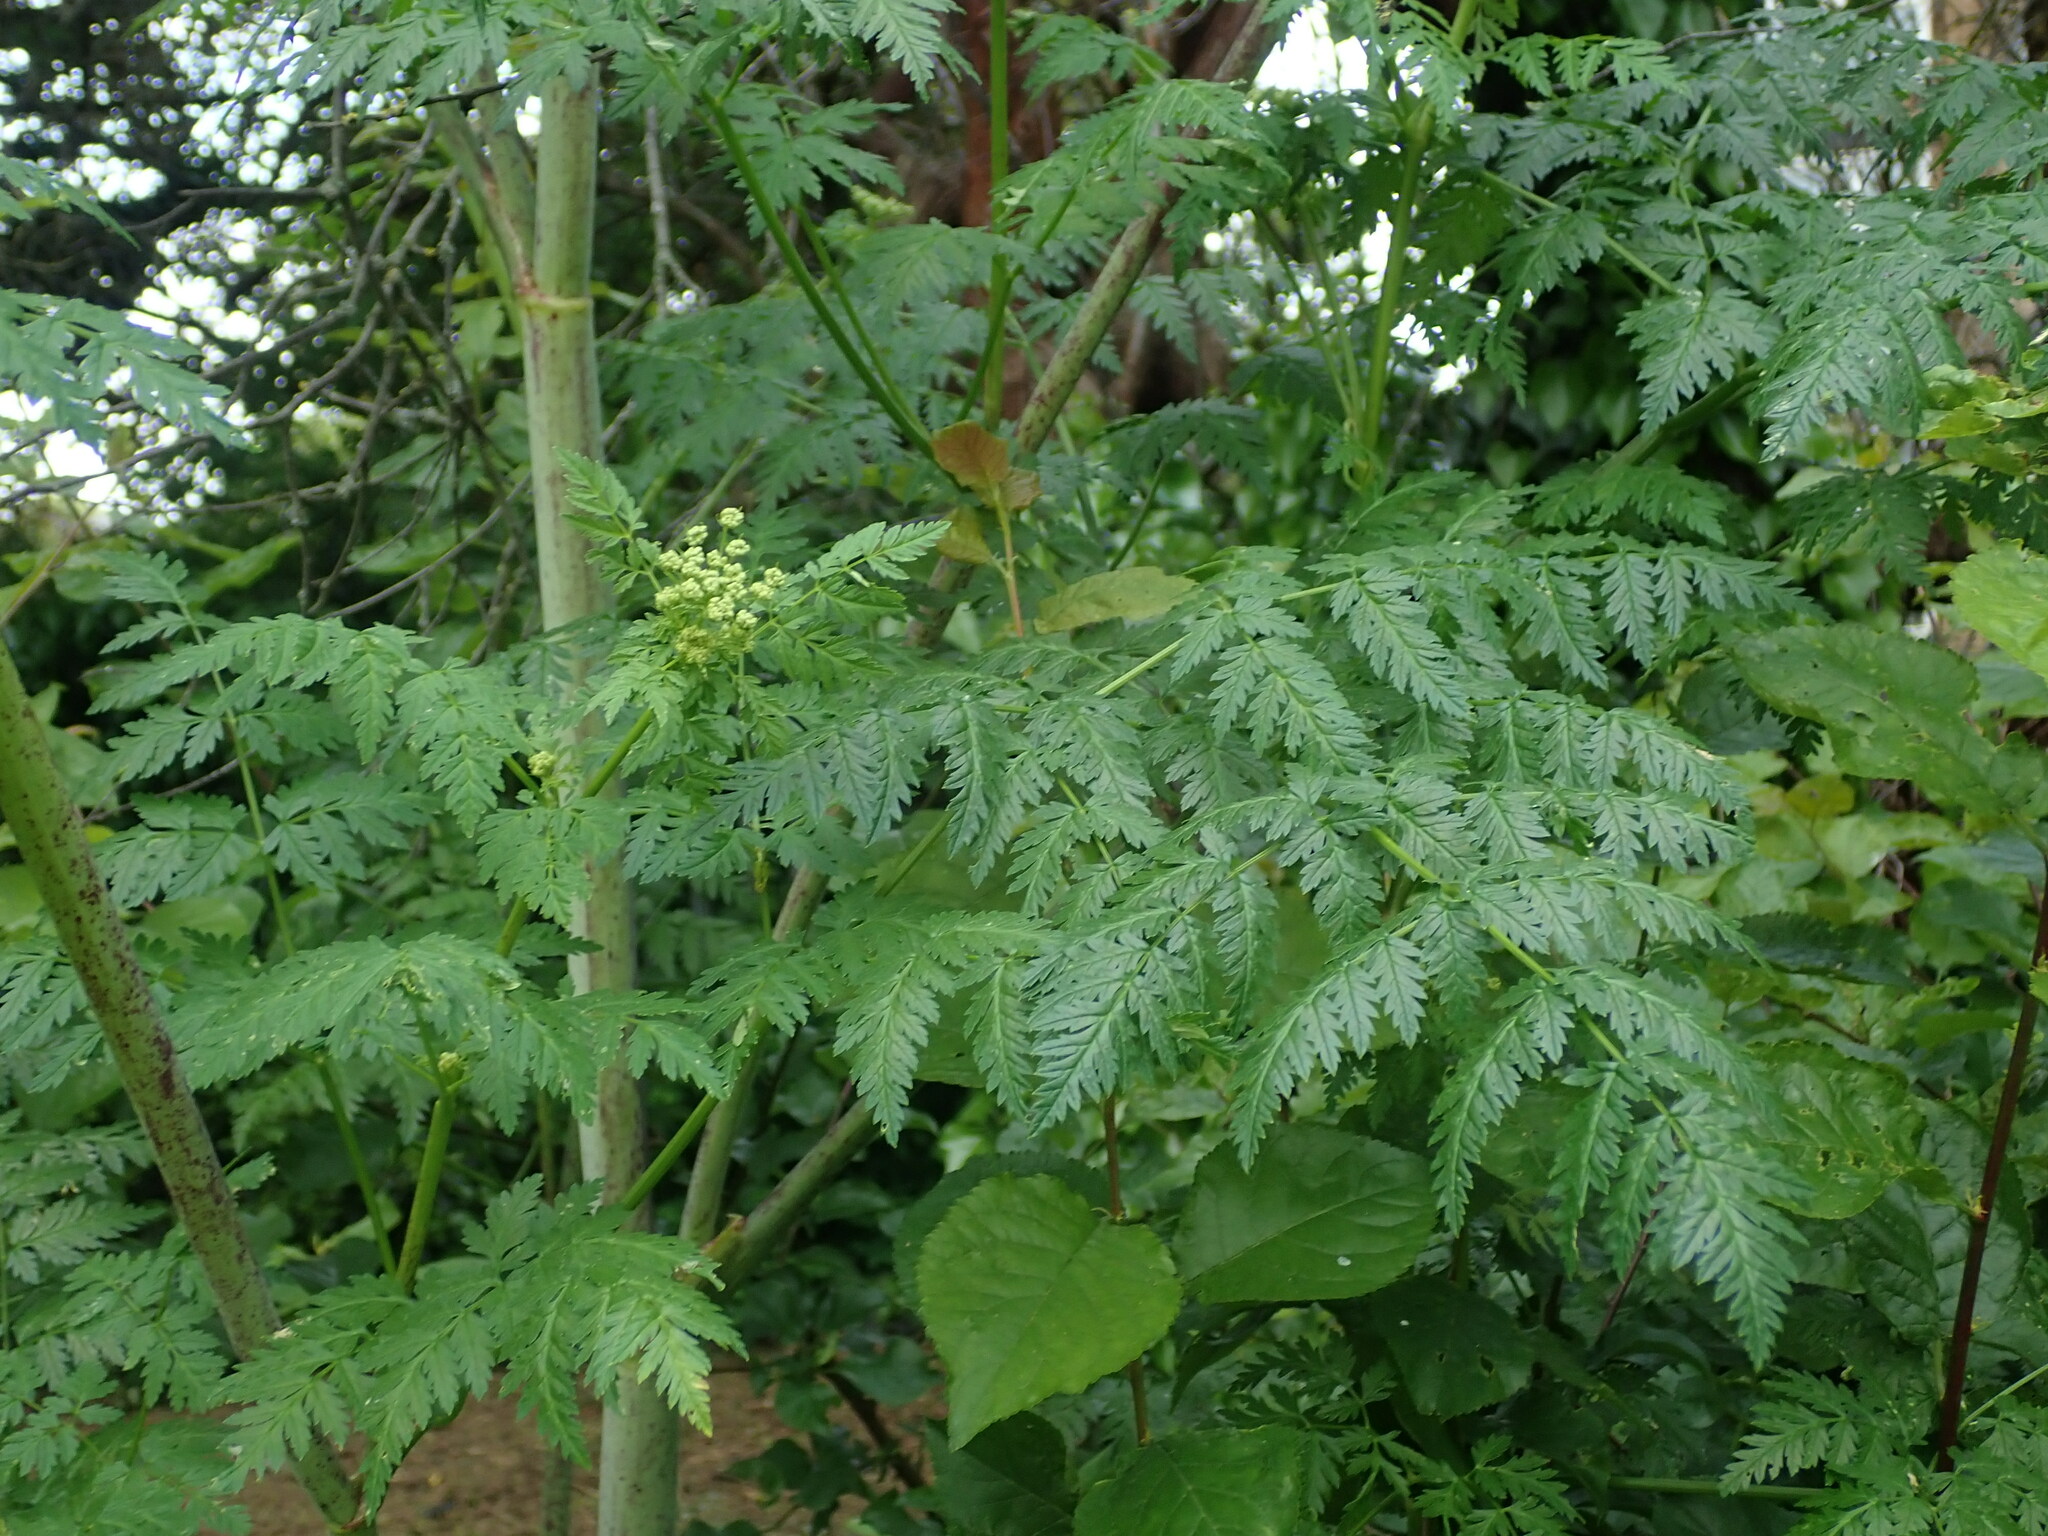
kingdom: Plantae
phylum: Tracheophyta
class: Magnoliopsida
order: Apiales
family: Apiaceae
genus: Conium
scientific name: Conium maculatum
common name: Hemlock
